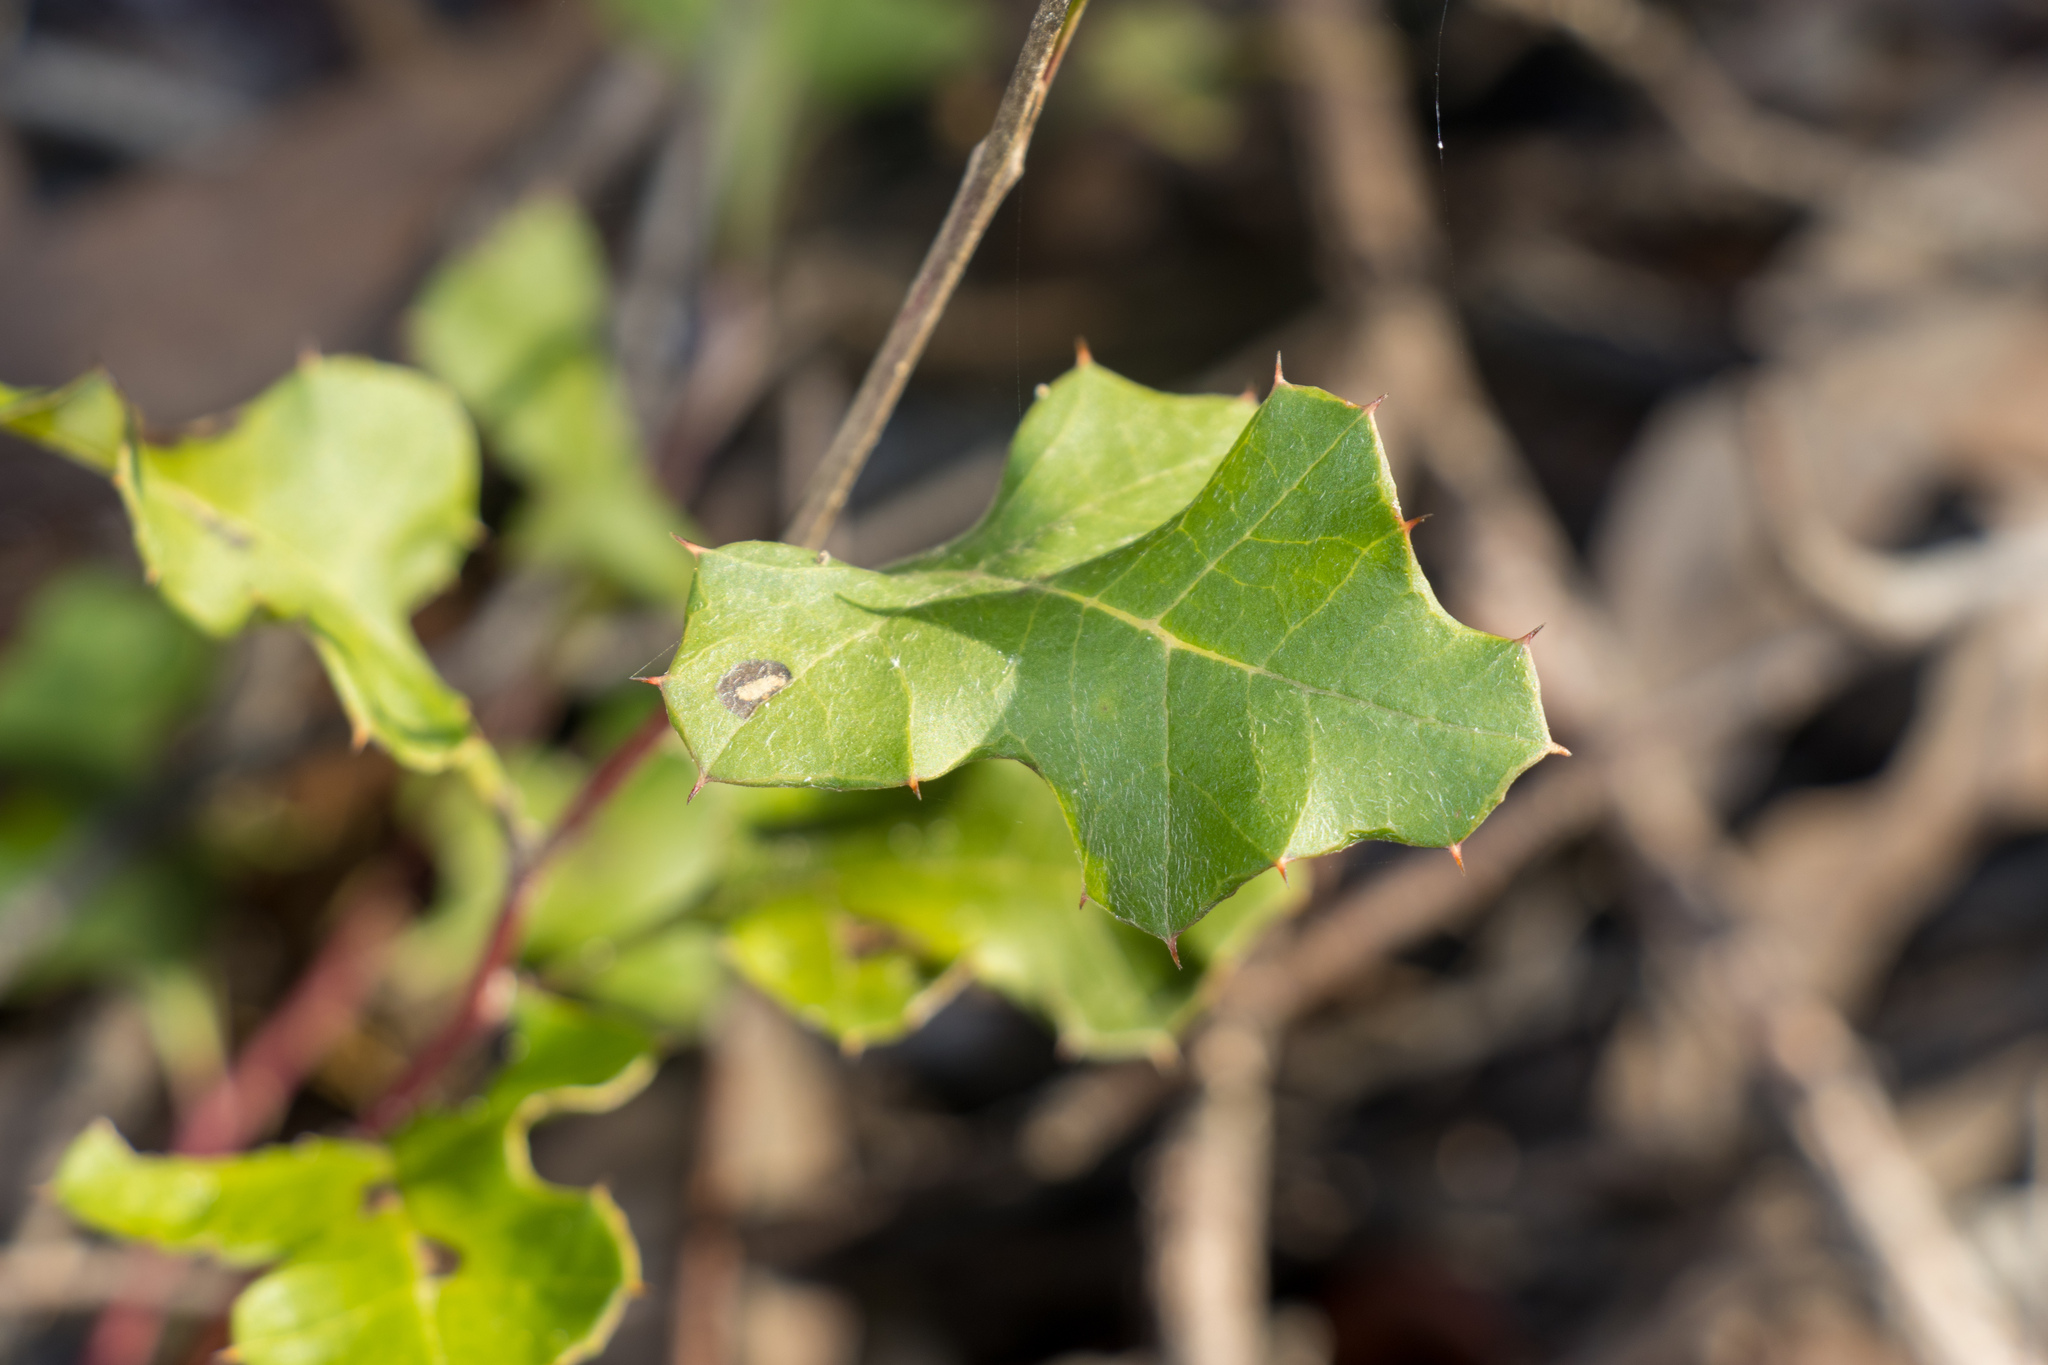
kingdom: Plantae
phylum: Tracheophyta
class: Magnoliopsida
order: Proteales
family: Proteaceae
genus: Grevillea
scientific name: Grevillea steiglitziana
